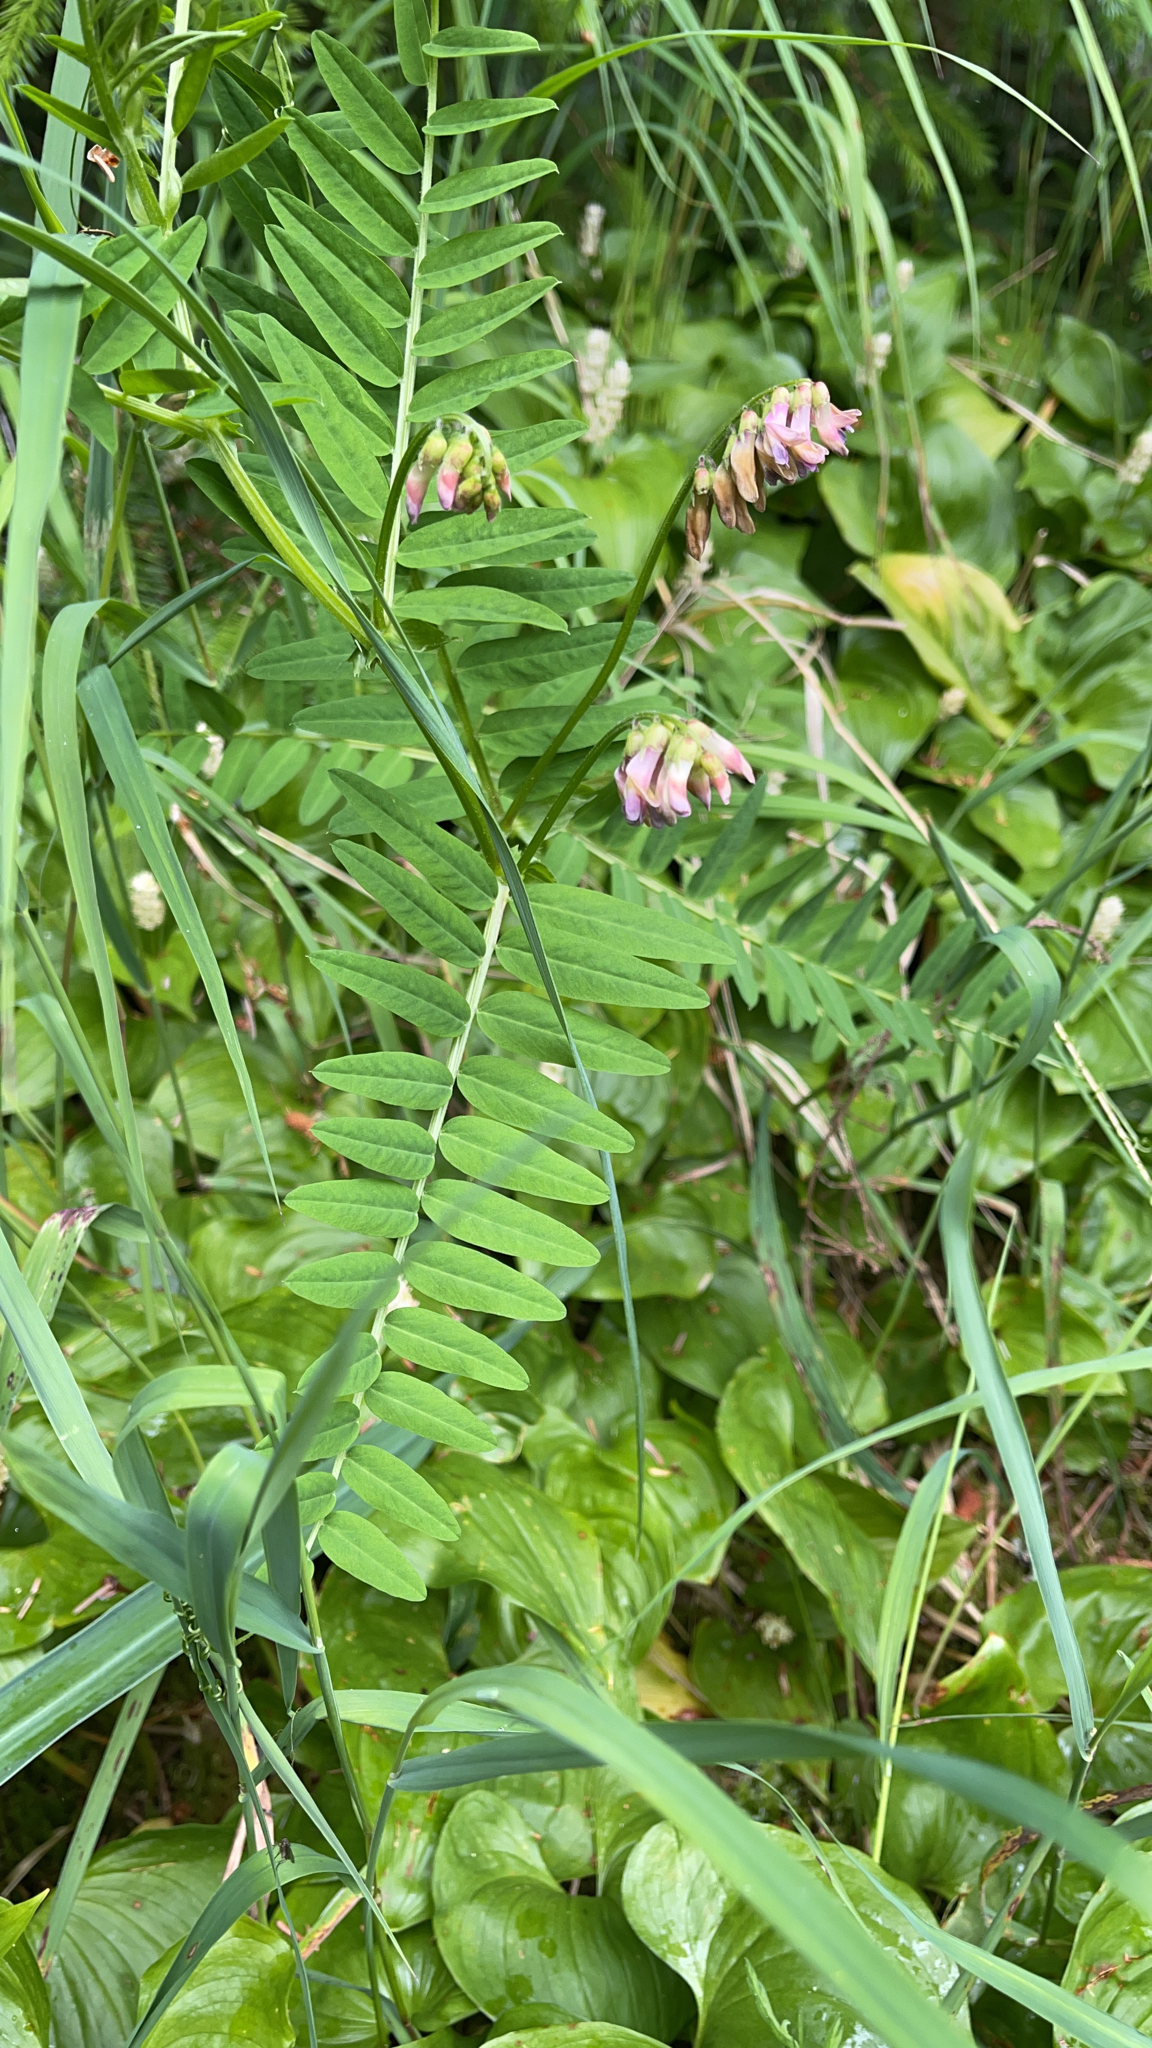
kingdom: Plantae
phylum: Tracheophyta
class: Magnoliopsida
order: Fabales
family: Fabaceae
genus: Vicia
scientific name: Vicia
